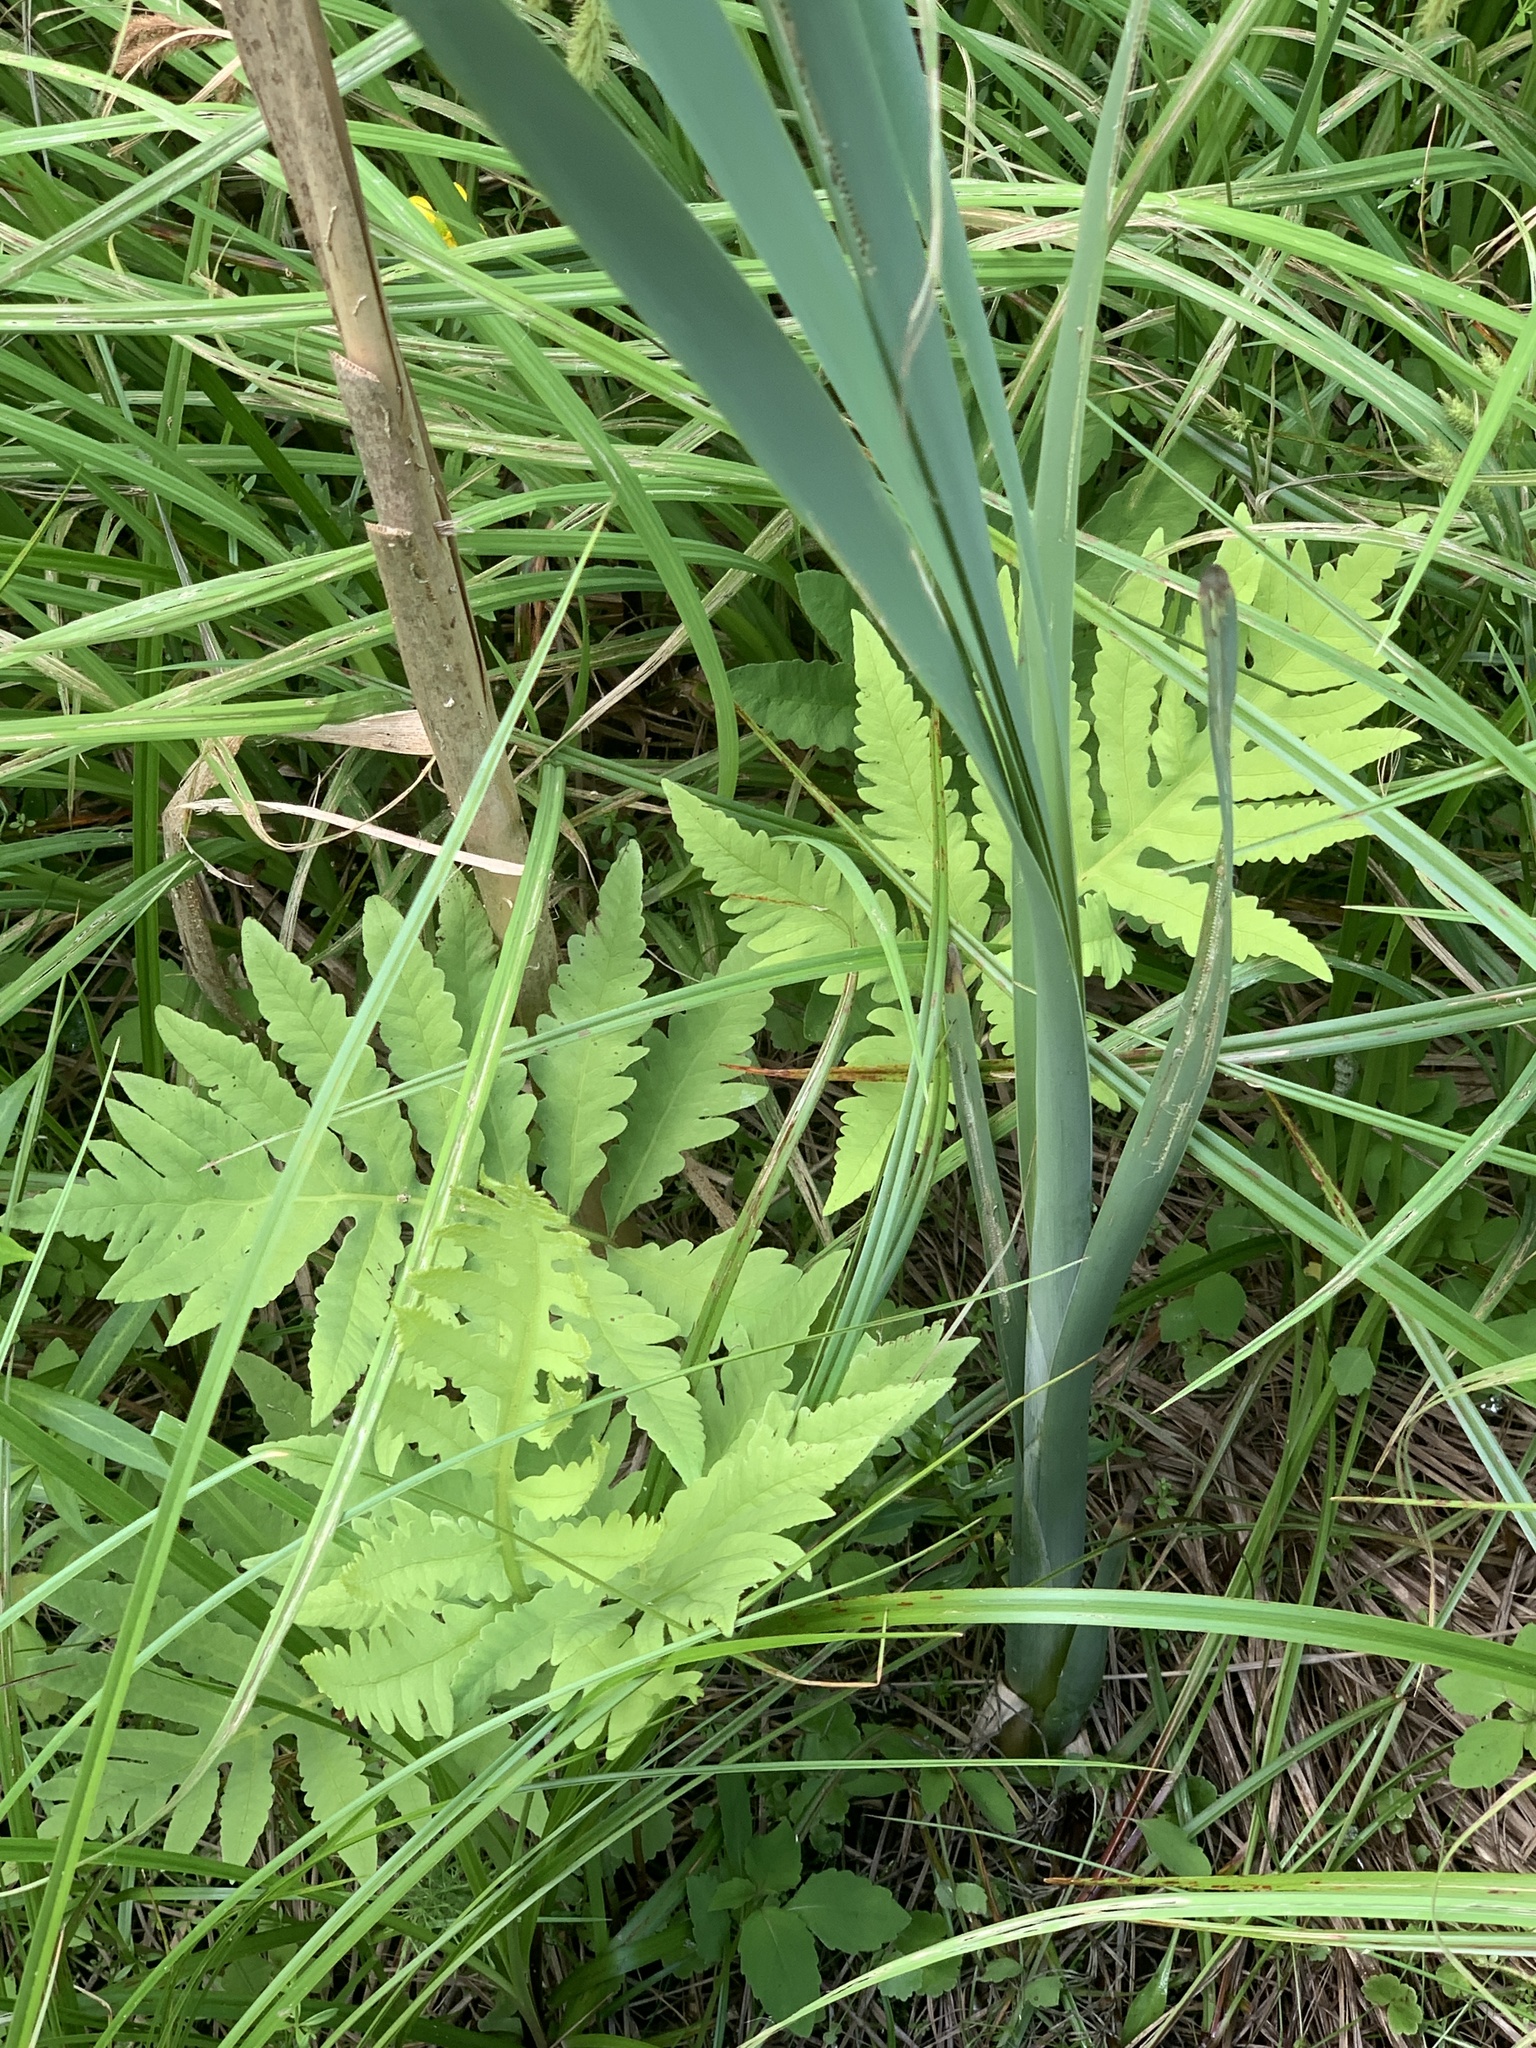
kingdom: Plantae
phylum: Tracheophyta
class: Polypodiopsida
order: Polypodiales
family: Onocleaceae
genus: Onoclea
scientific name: Onoclea sensibilis
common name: Sensitive fern
